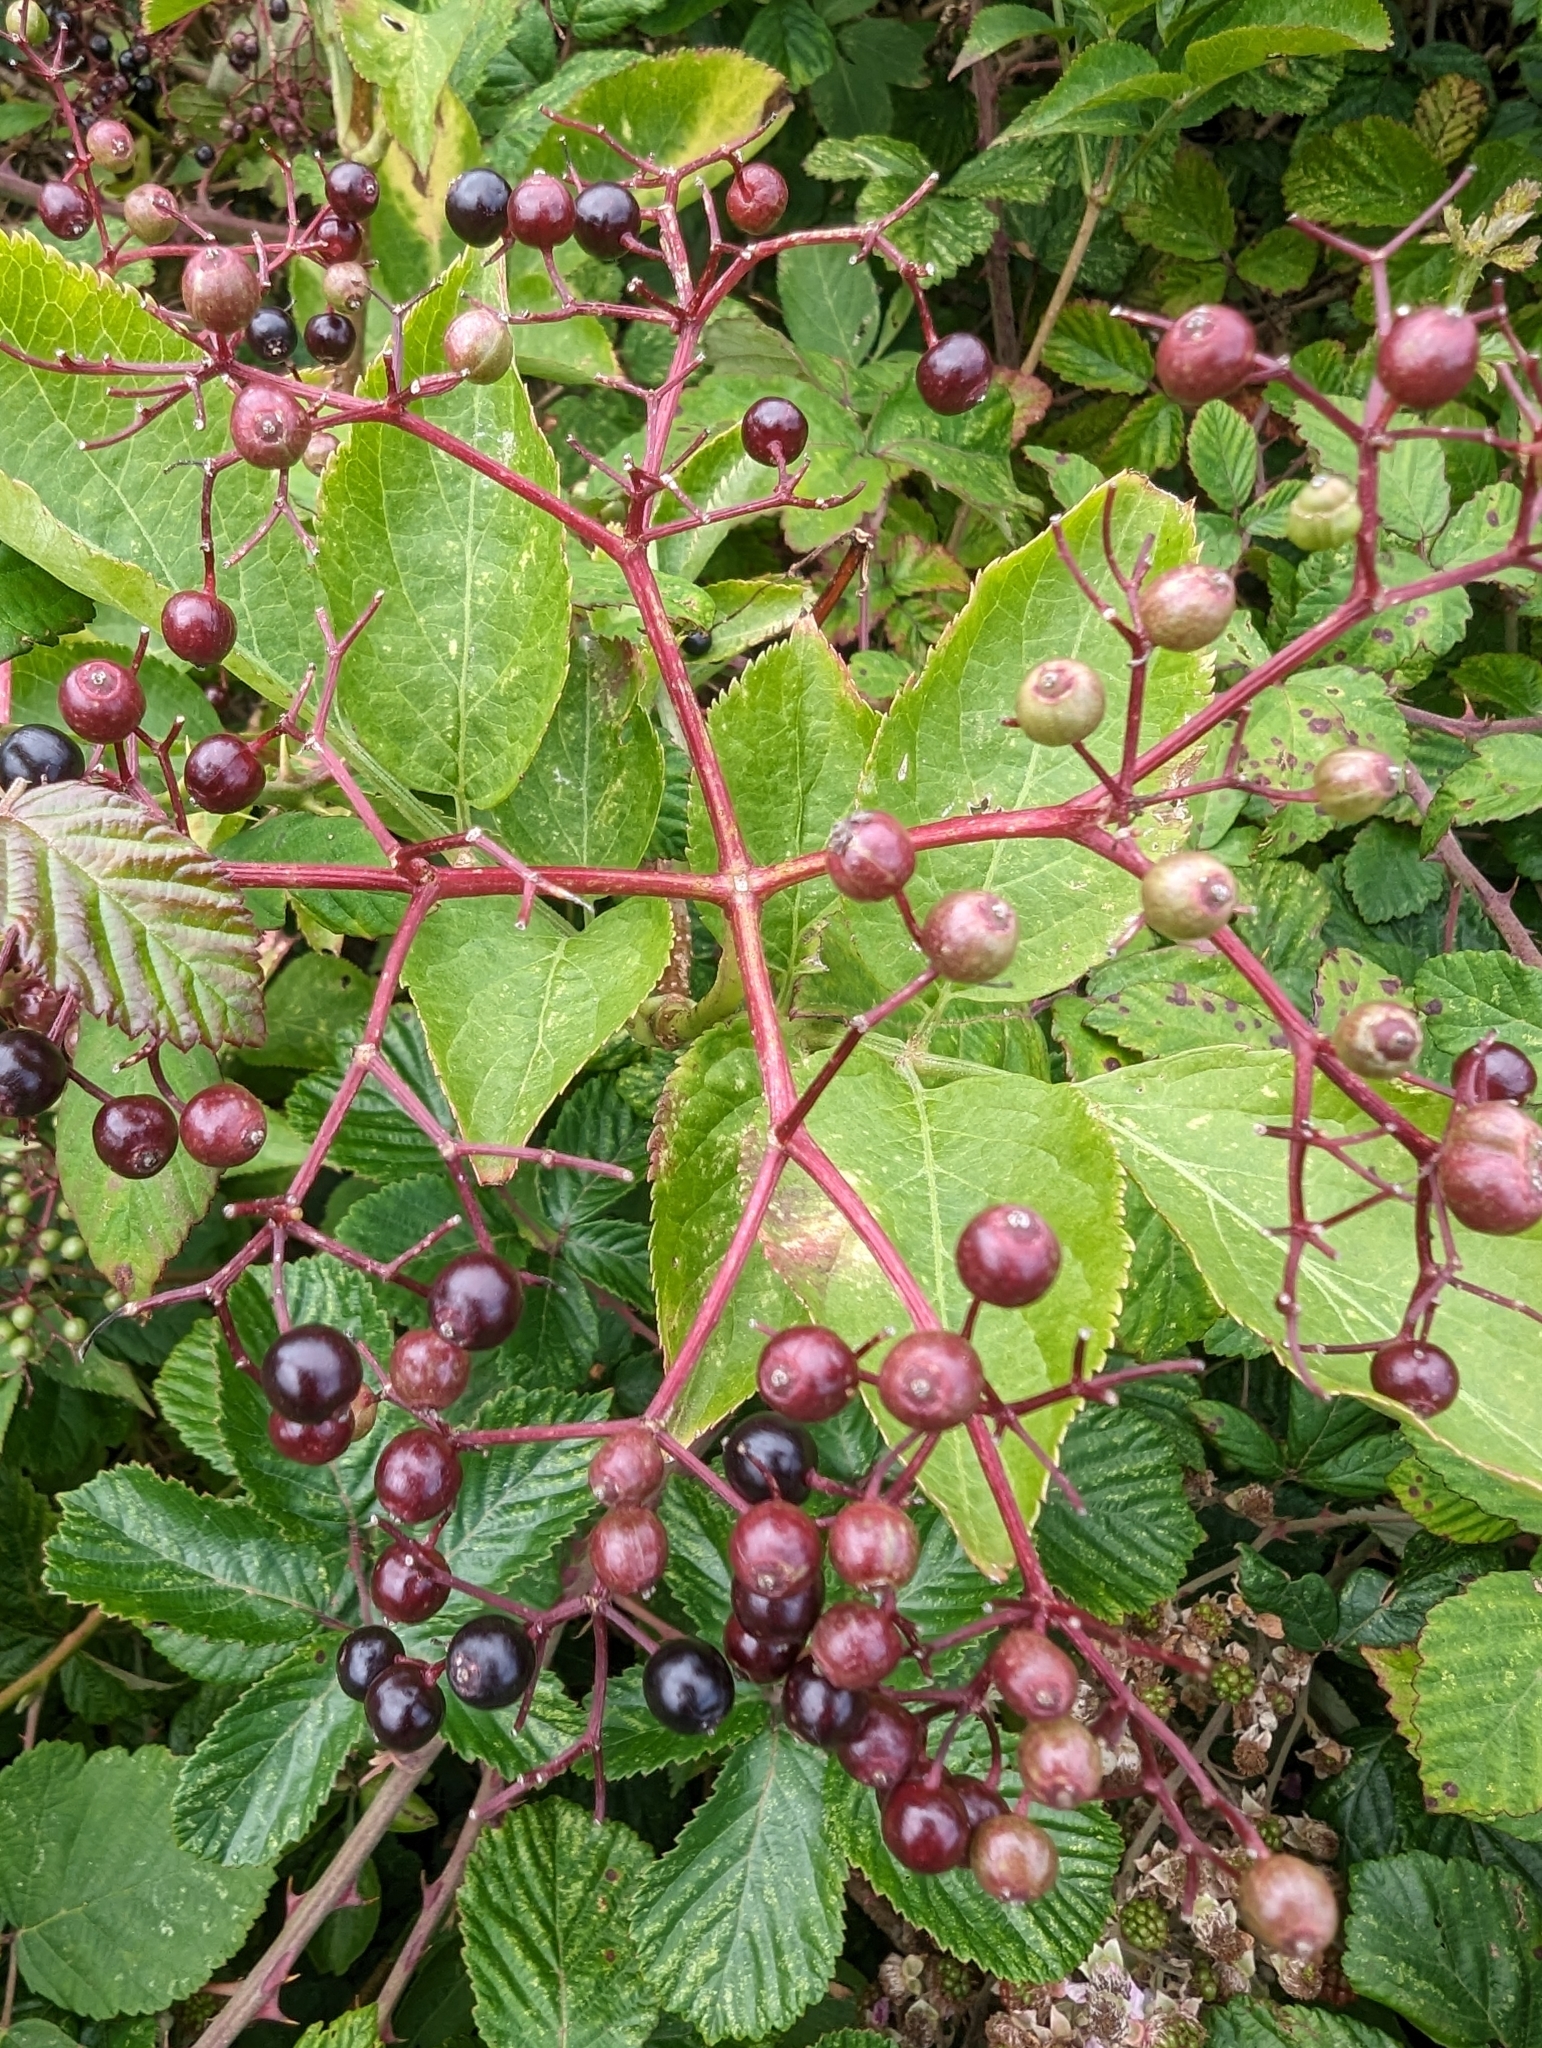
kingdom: Plantae
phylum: Tracheophyta
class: Magnoliopsida
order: Dipsacales
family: Viburnaceae
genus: Sambucus
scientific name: Sambucus nigra
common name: Elder
